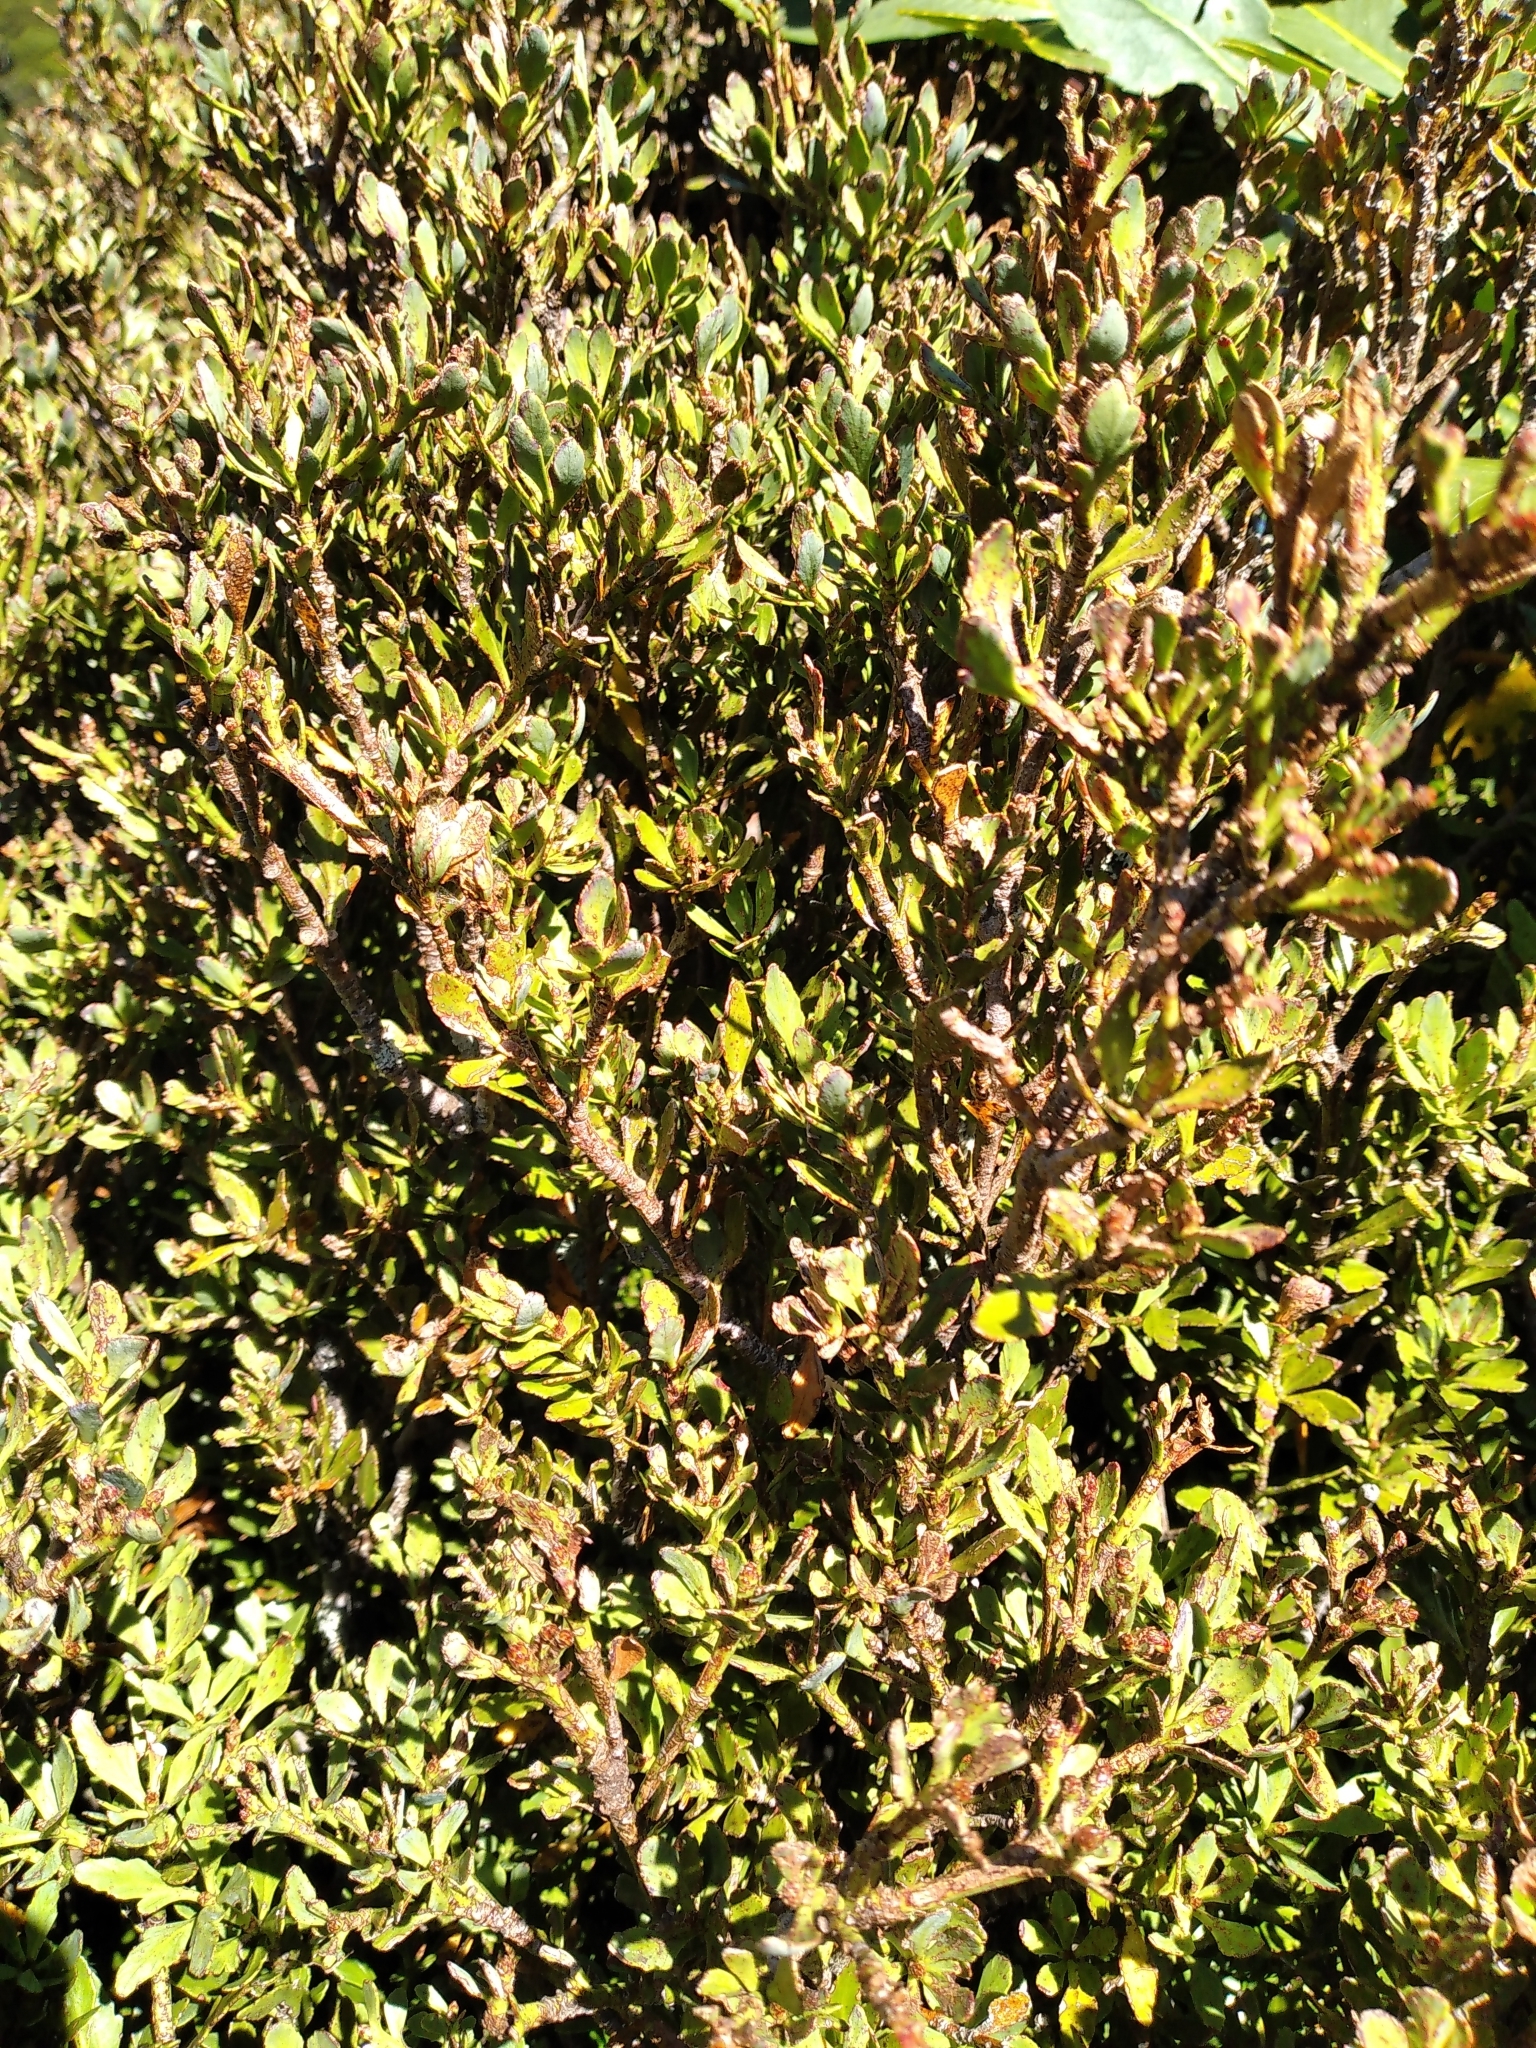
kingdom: Plantae
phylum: Tracheophyta
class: Pinopsida
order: Pinales
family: Phyllocladaceae
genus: Phyllocladus
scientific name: Phyllocladus trichomanoides
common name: Celery pine
